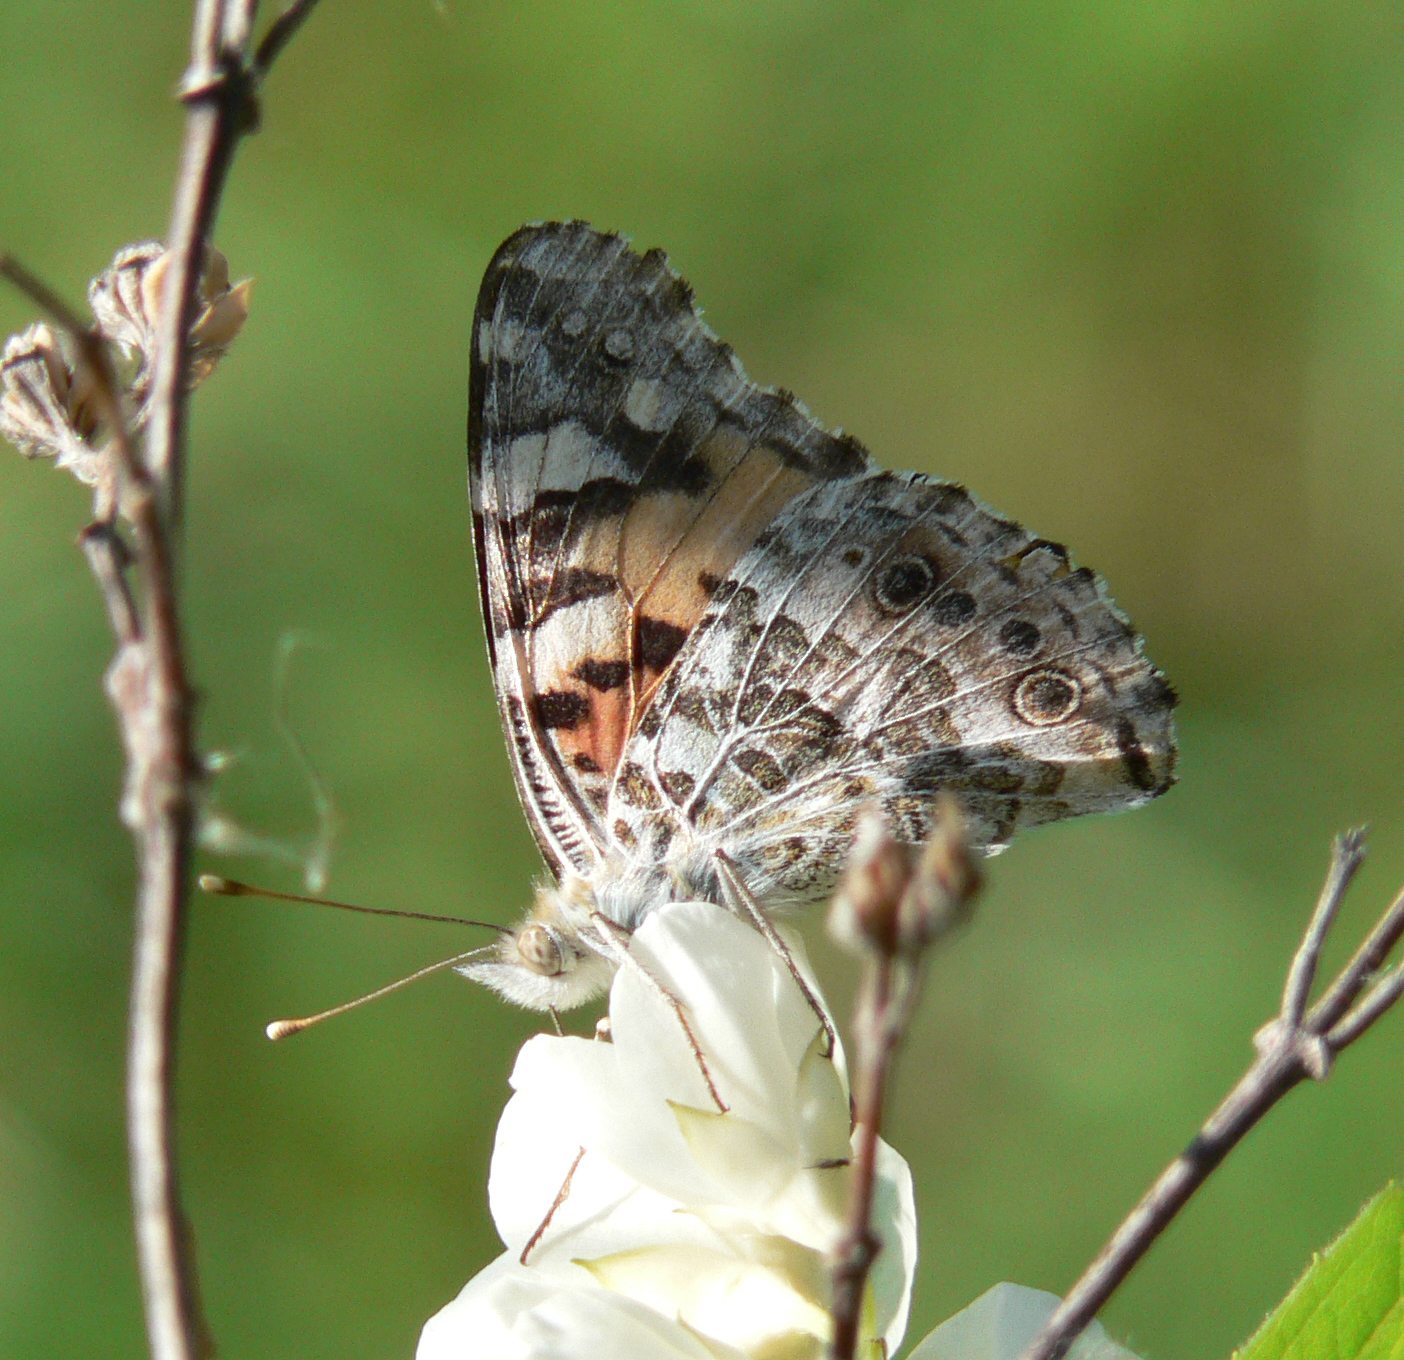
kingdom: Animalia
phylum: Arthropoda
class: Insecta
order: Lepidoptera
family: Nymphalidae
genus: Vanessa
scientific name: Vanessa cardui
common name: Painted lady
